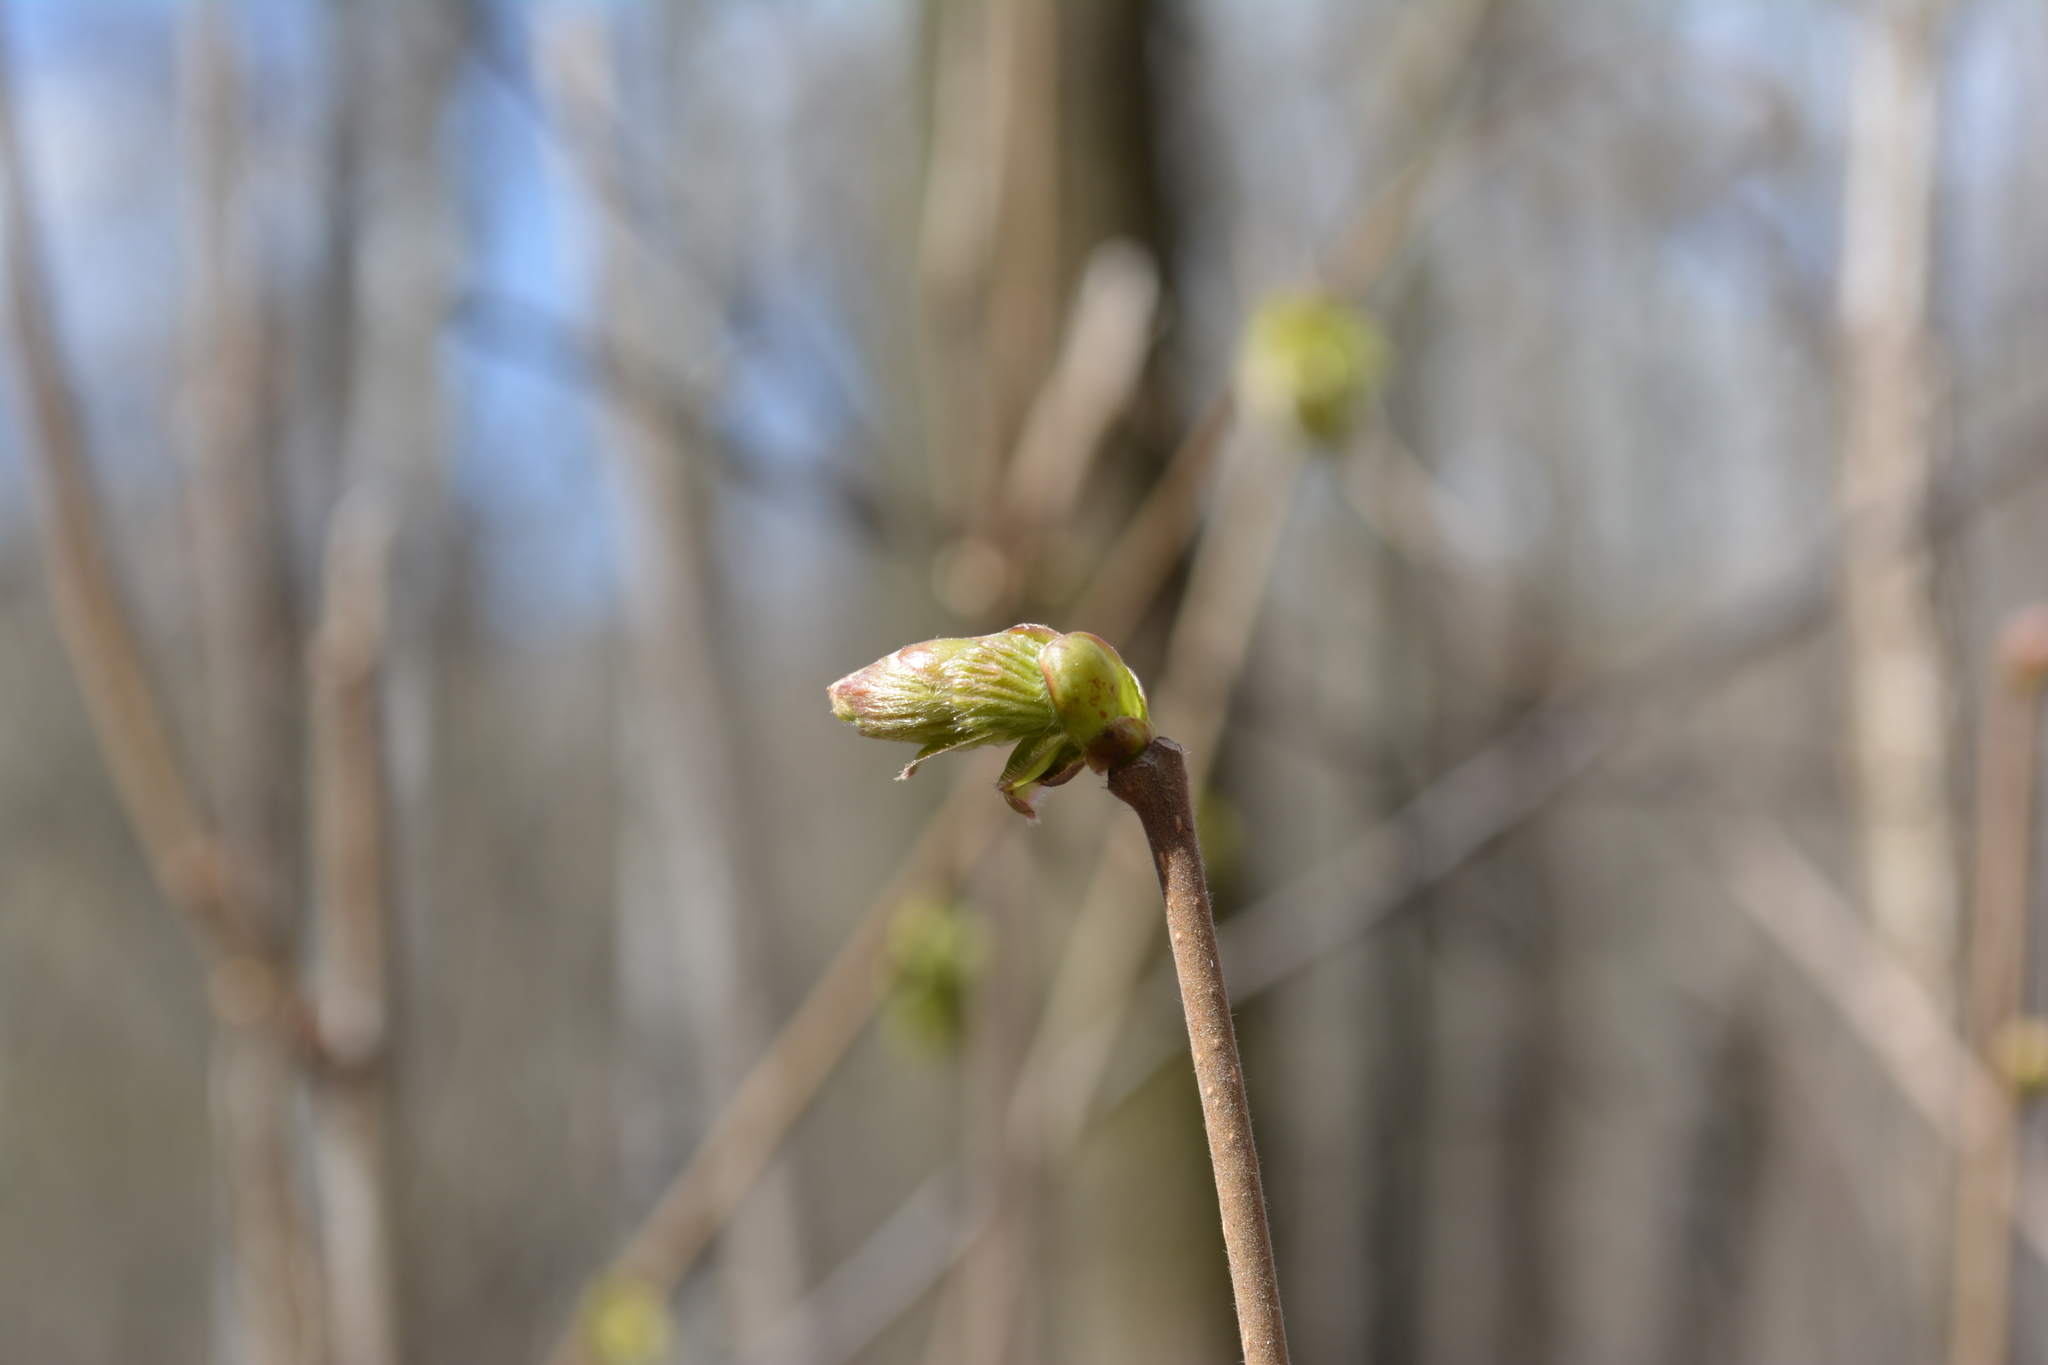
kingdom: Plantae
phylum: Tracheophyta
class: Magnoliopsida
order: Fagales
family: Betulaceae
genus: Corylus
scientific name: Corylus avellana
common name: European hazel
